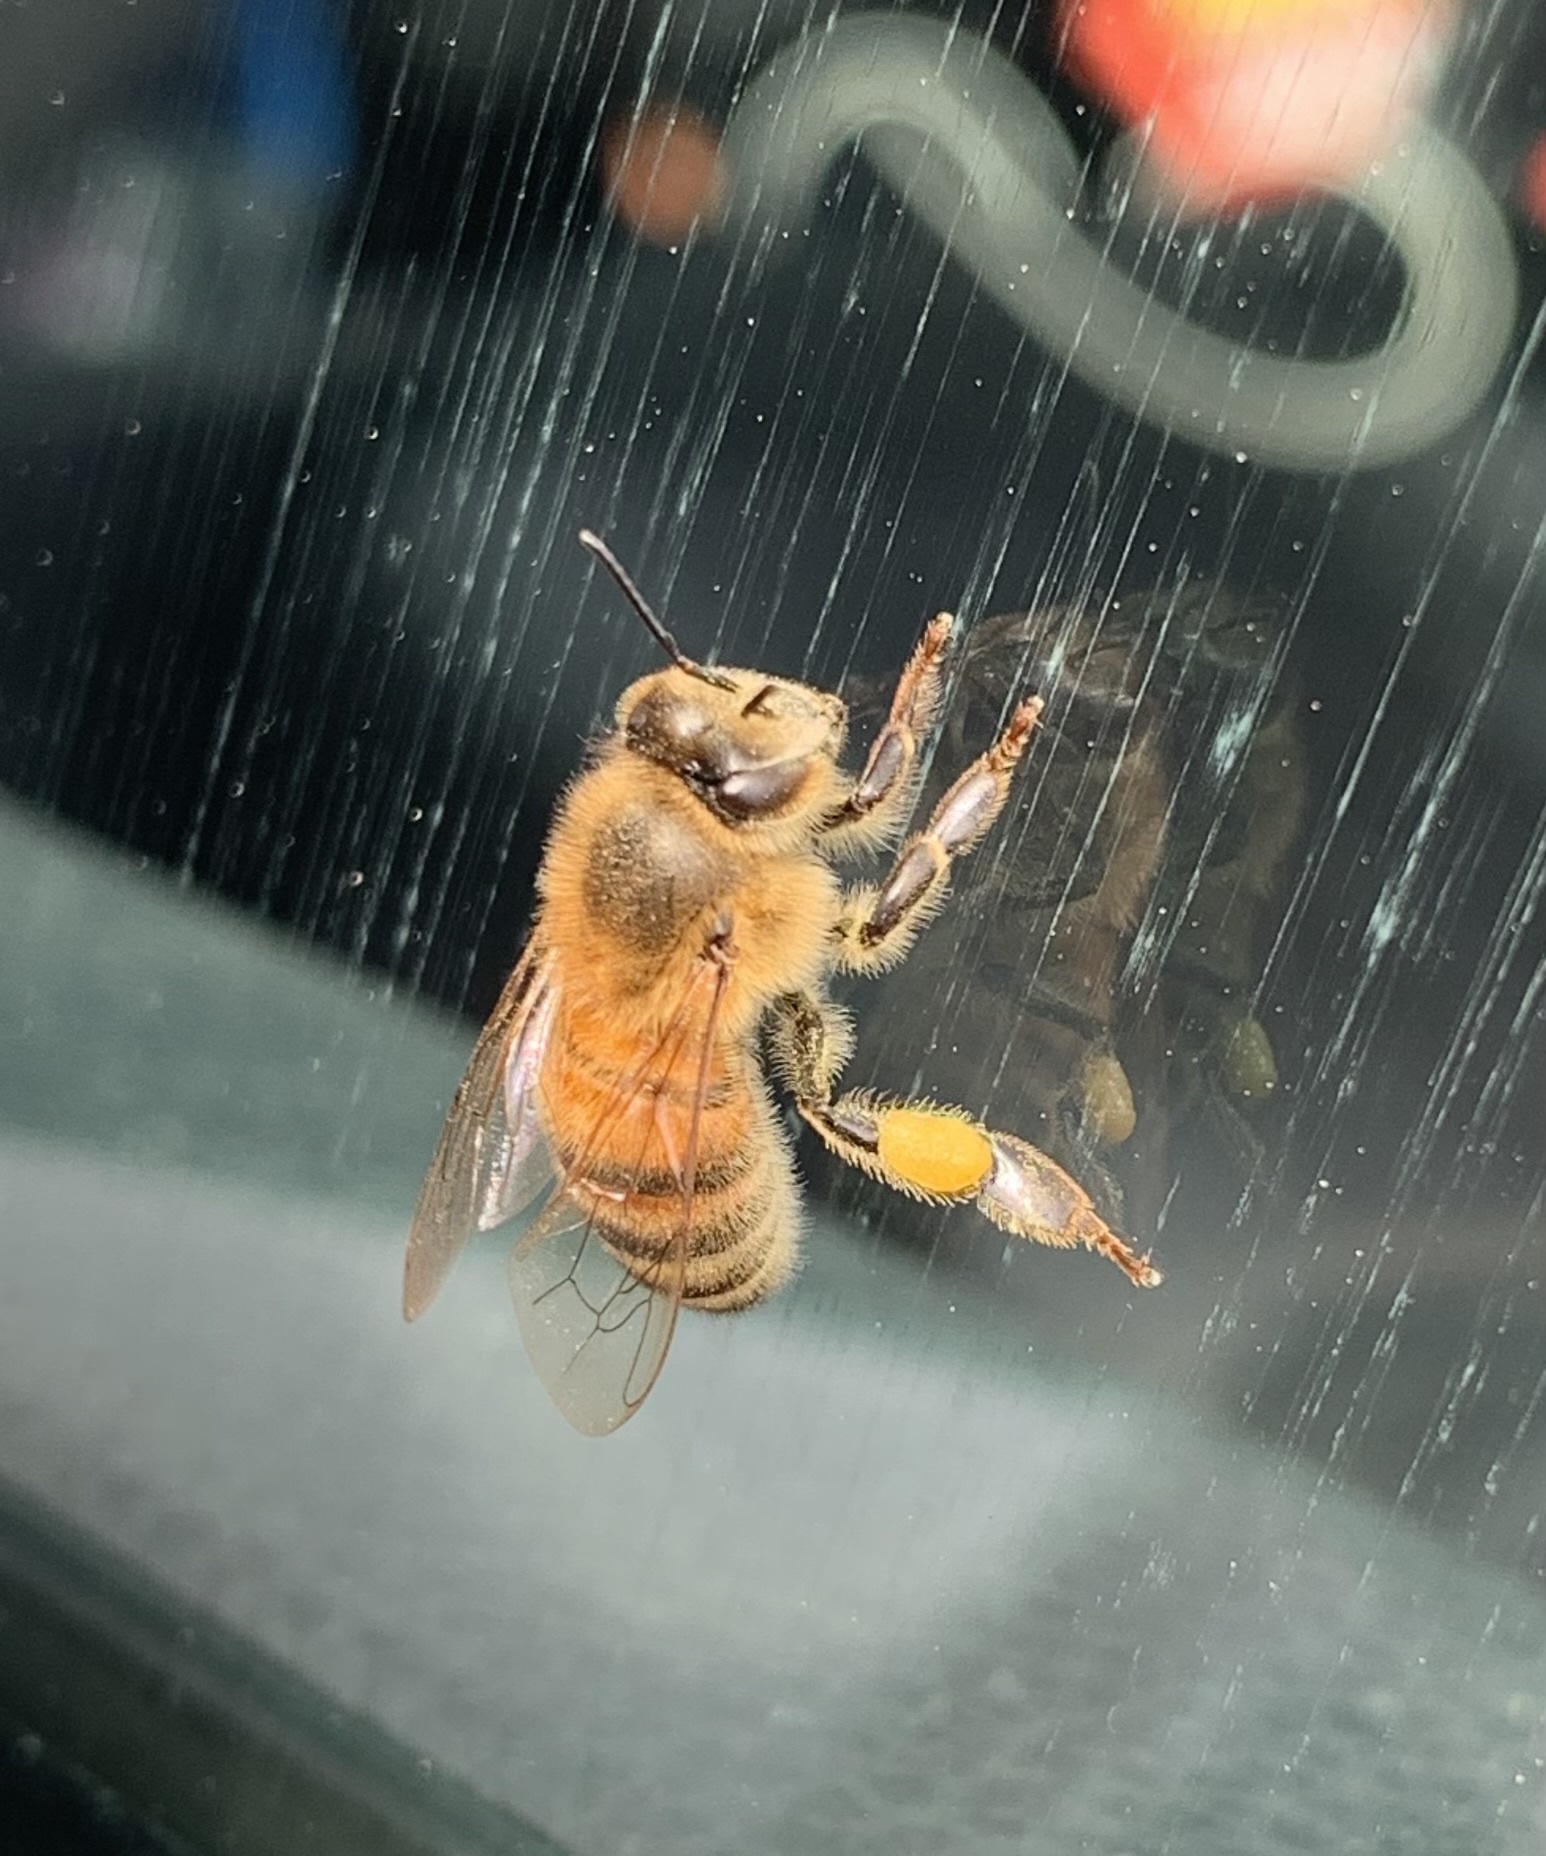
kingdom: Animalia
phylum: Arthropoda
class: Insecta
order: Hymenoptera
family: Apidae
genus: Apis
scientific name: Apis mellifera
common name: Honey bee
